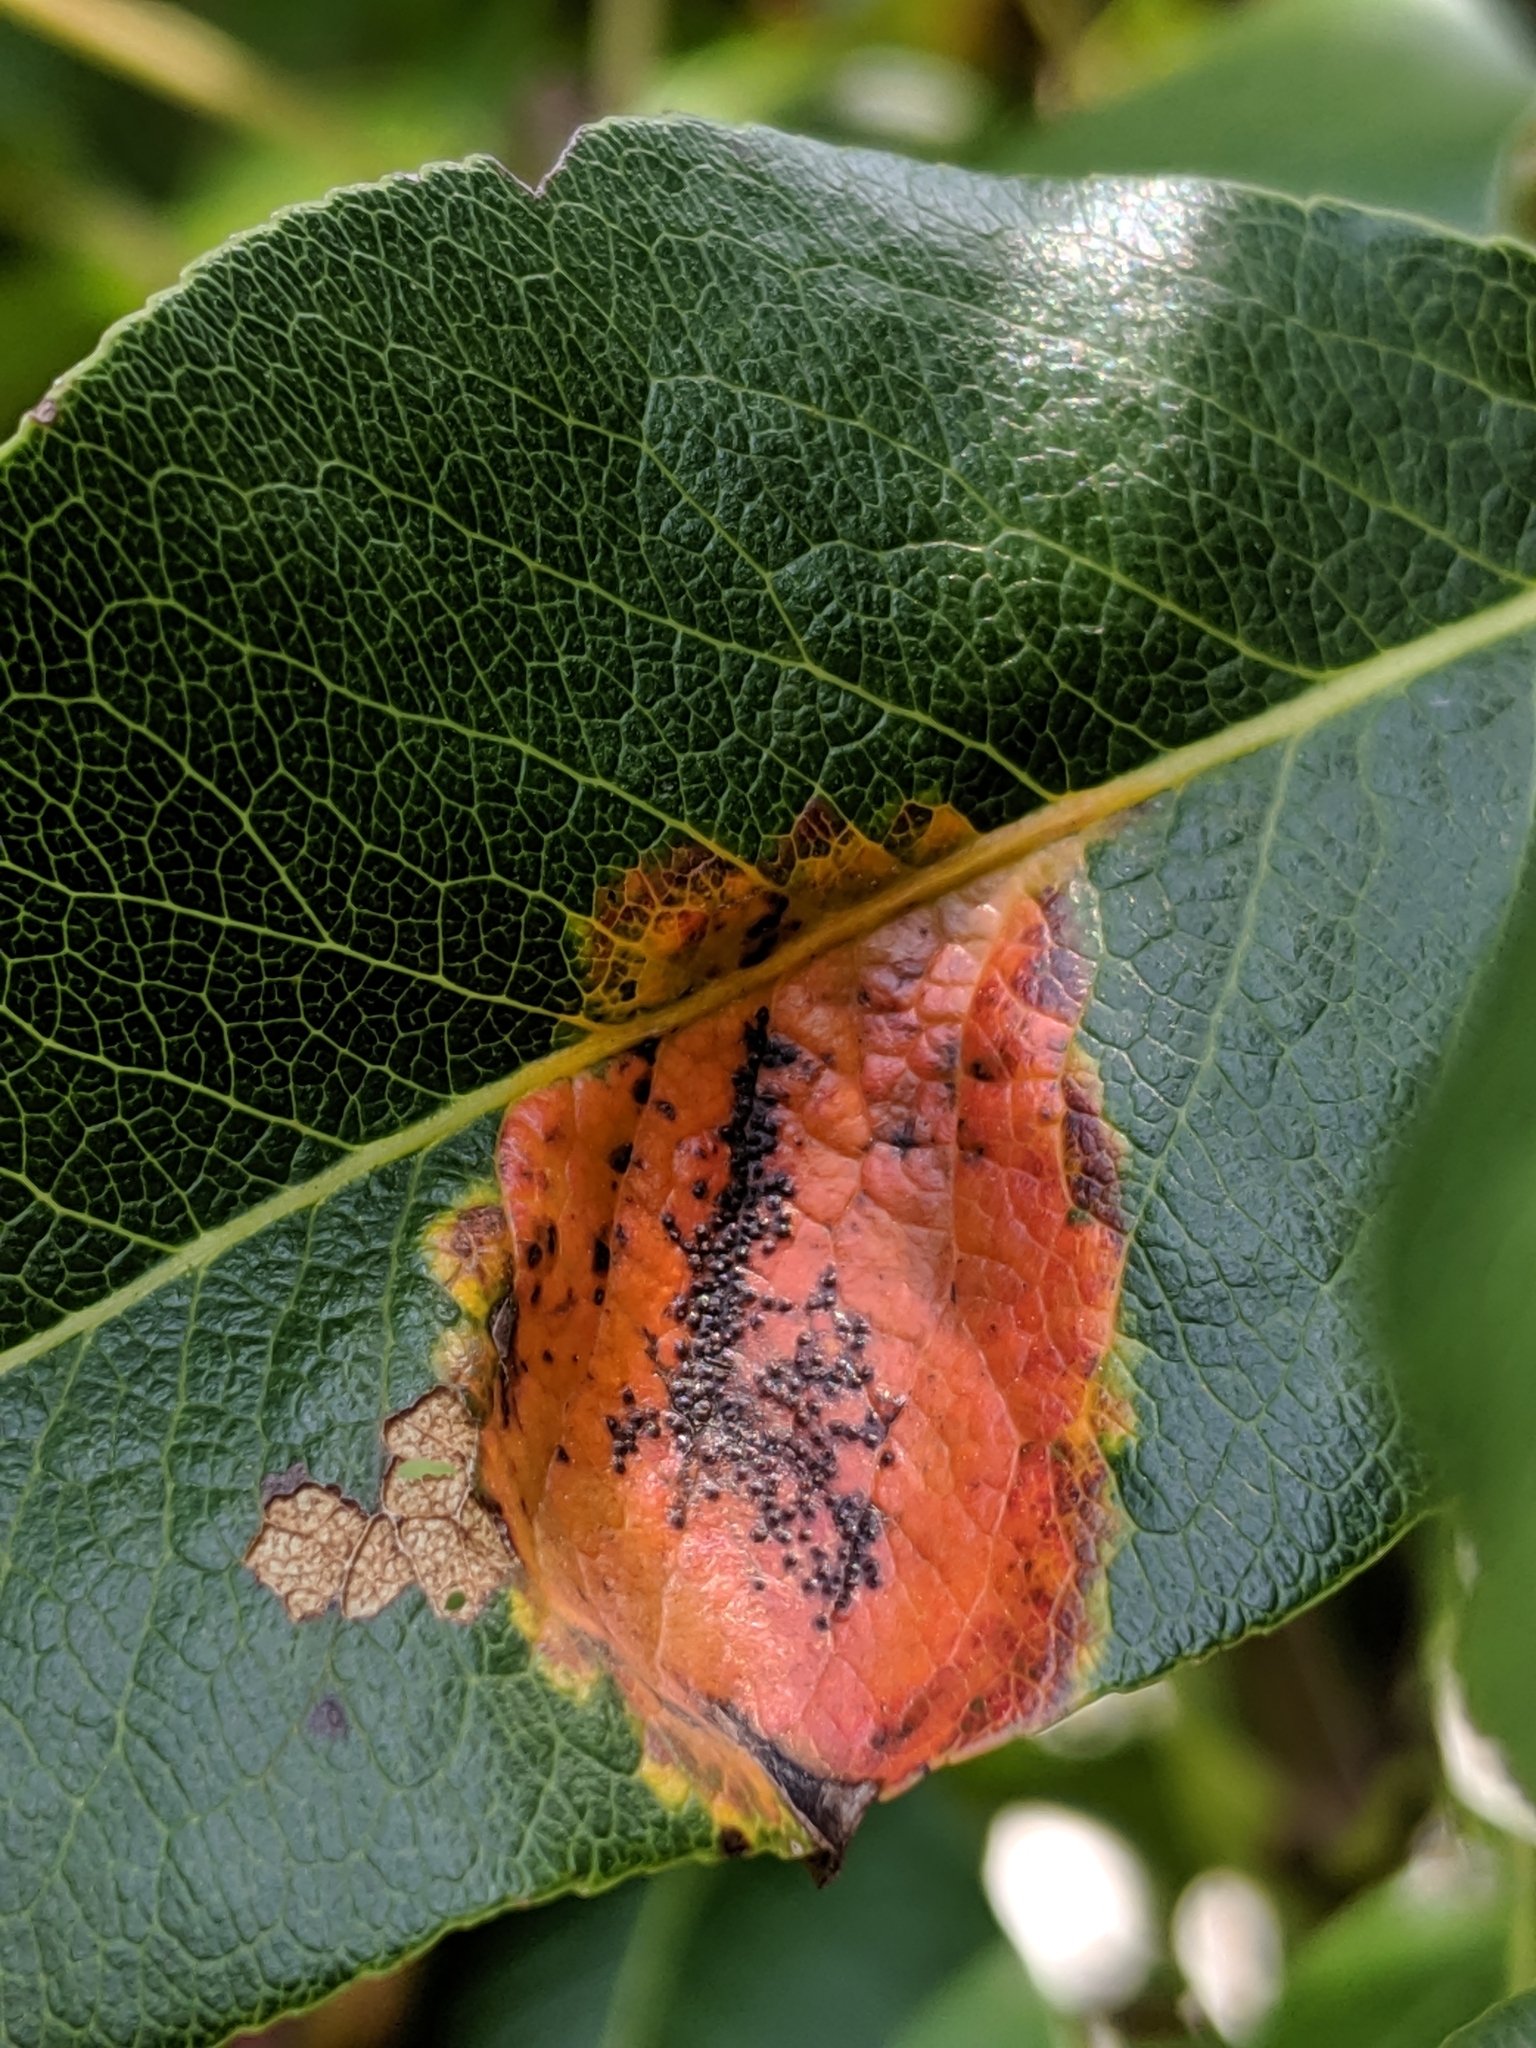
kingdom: Fungi
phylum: Basidiomycota
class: Pucciniomycetes
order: Pucciniales
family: Gymnosporangiaceae
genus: Gymnosporangium
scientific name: Gymnosporangium sabinae
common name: Pear trellis rust fungus
